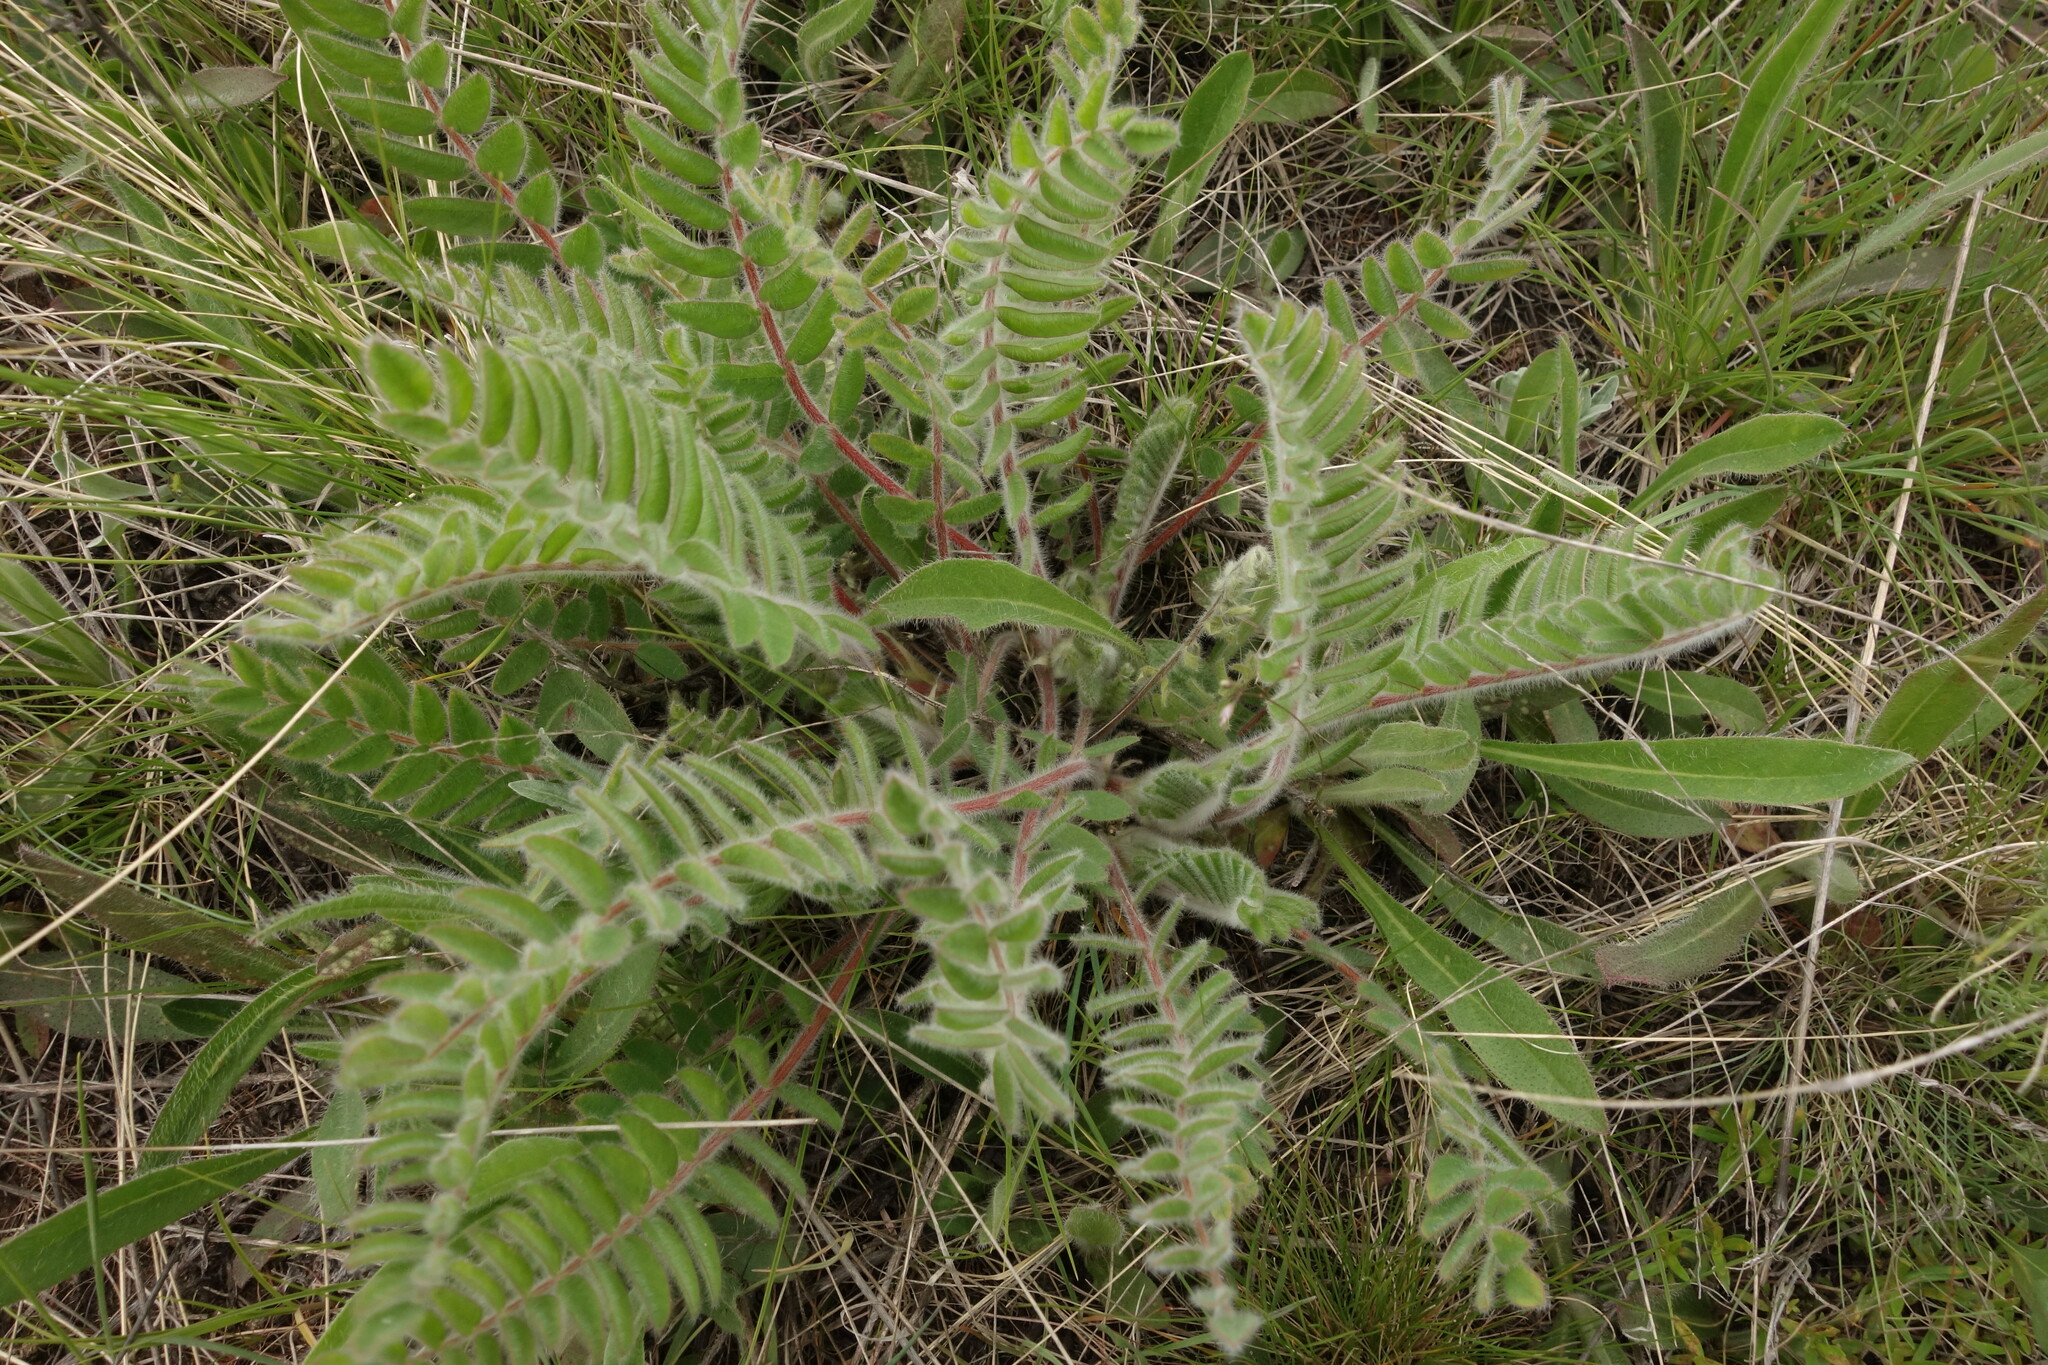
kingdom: Plantae
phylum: Tracheophyta
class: Magnoliopsida
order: Fabales
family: Fabaceae
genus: Astragalus
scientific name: Astragalus dasyanthus
